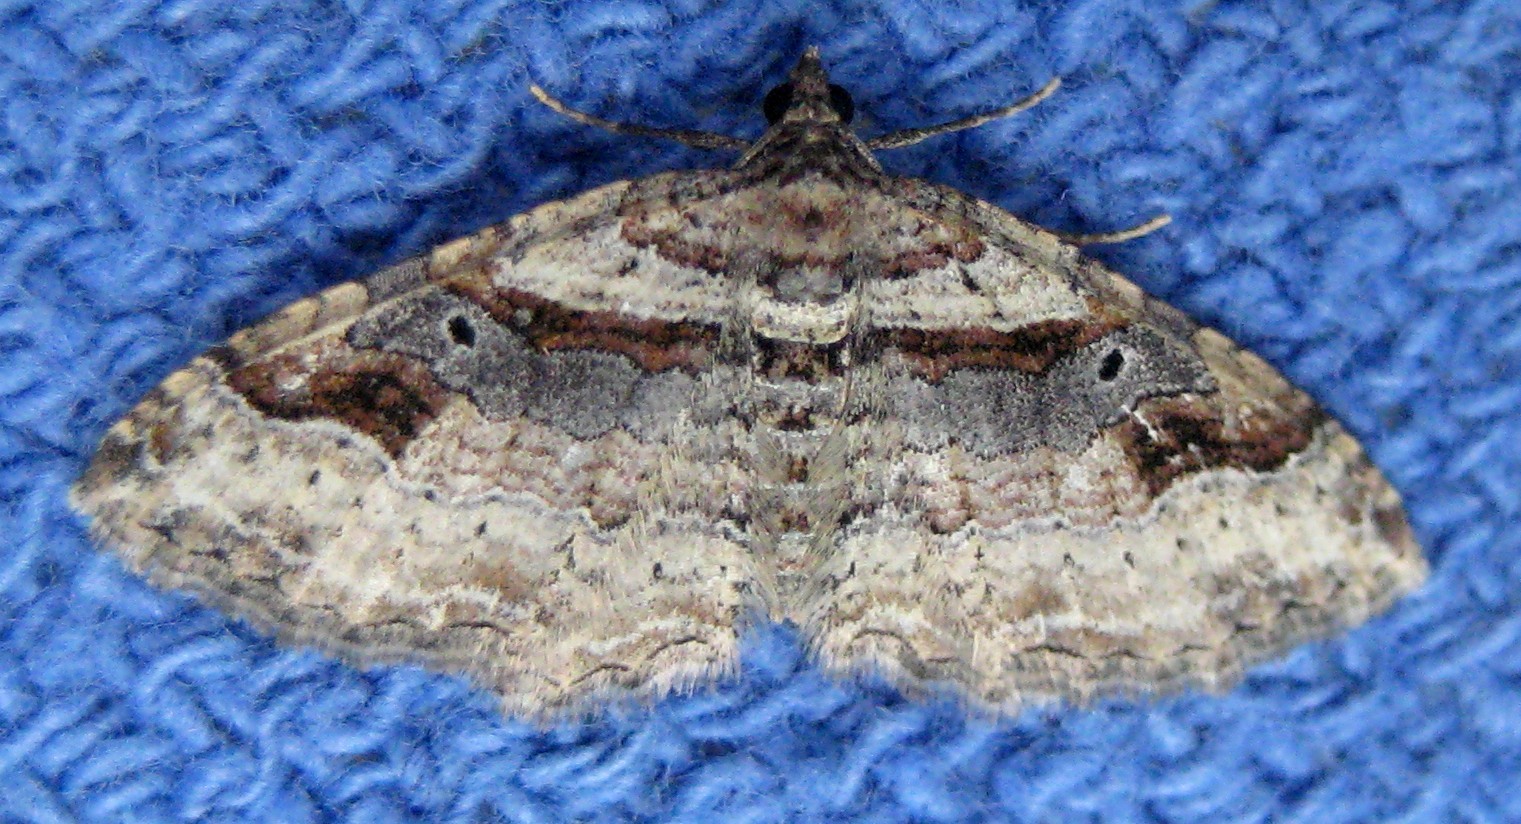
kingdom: Animalia
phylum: Arthropoda
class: Insecta
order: Lepidoptera
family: Geometridae
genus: Costaconvexa
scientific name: Costaconvexa centrostrigaria
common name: Bent-line carpet
